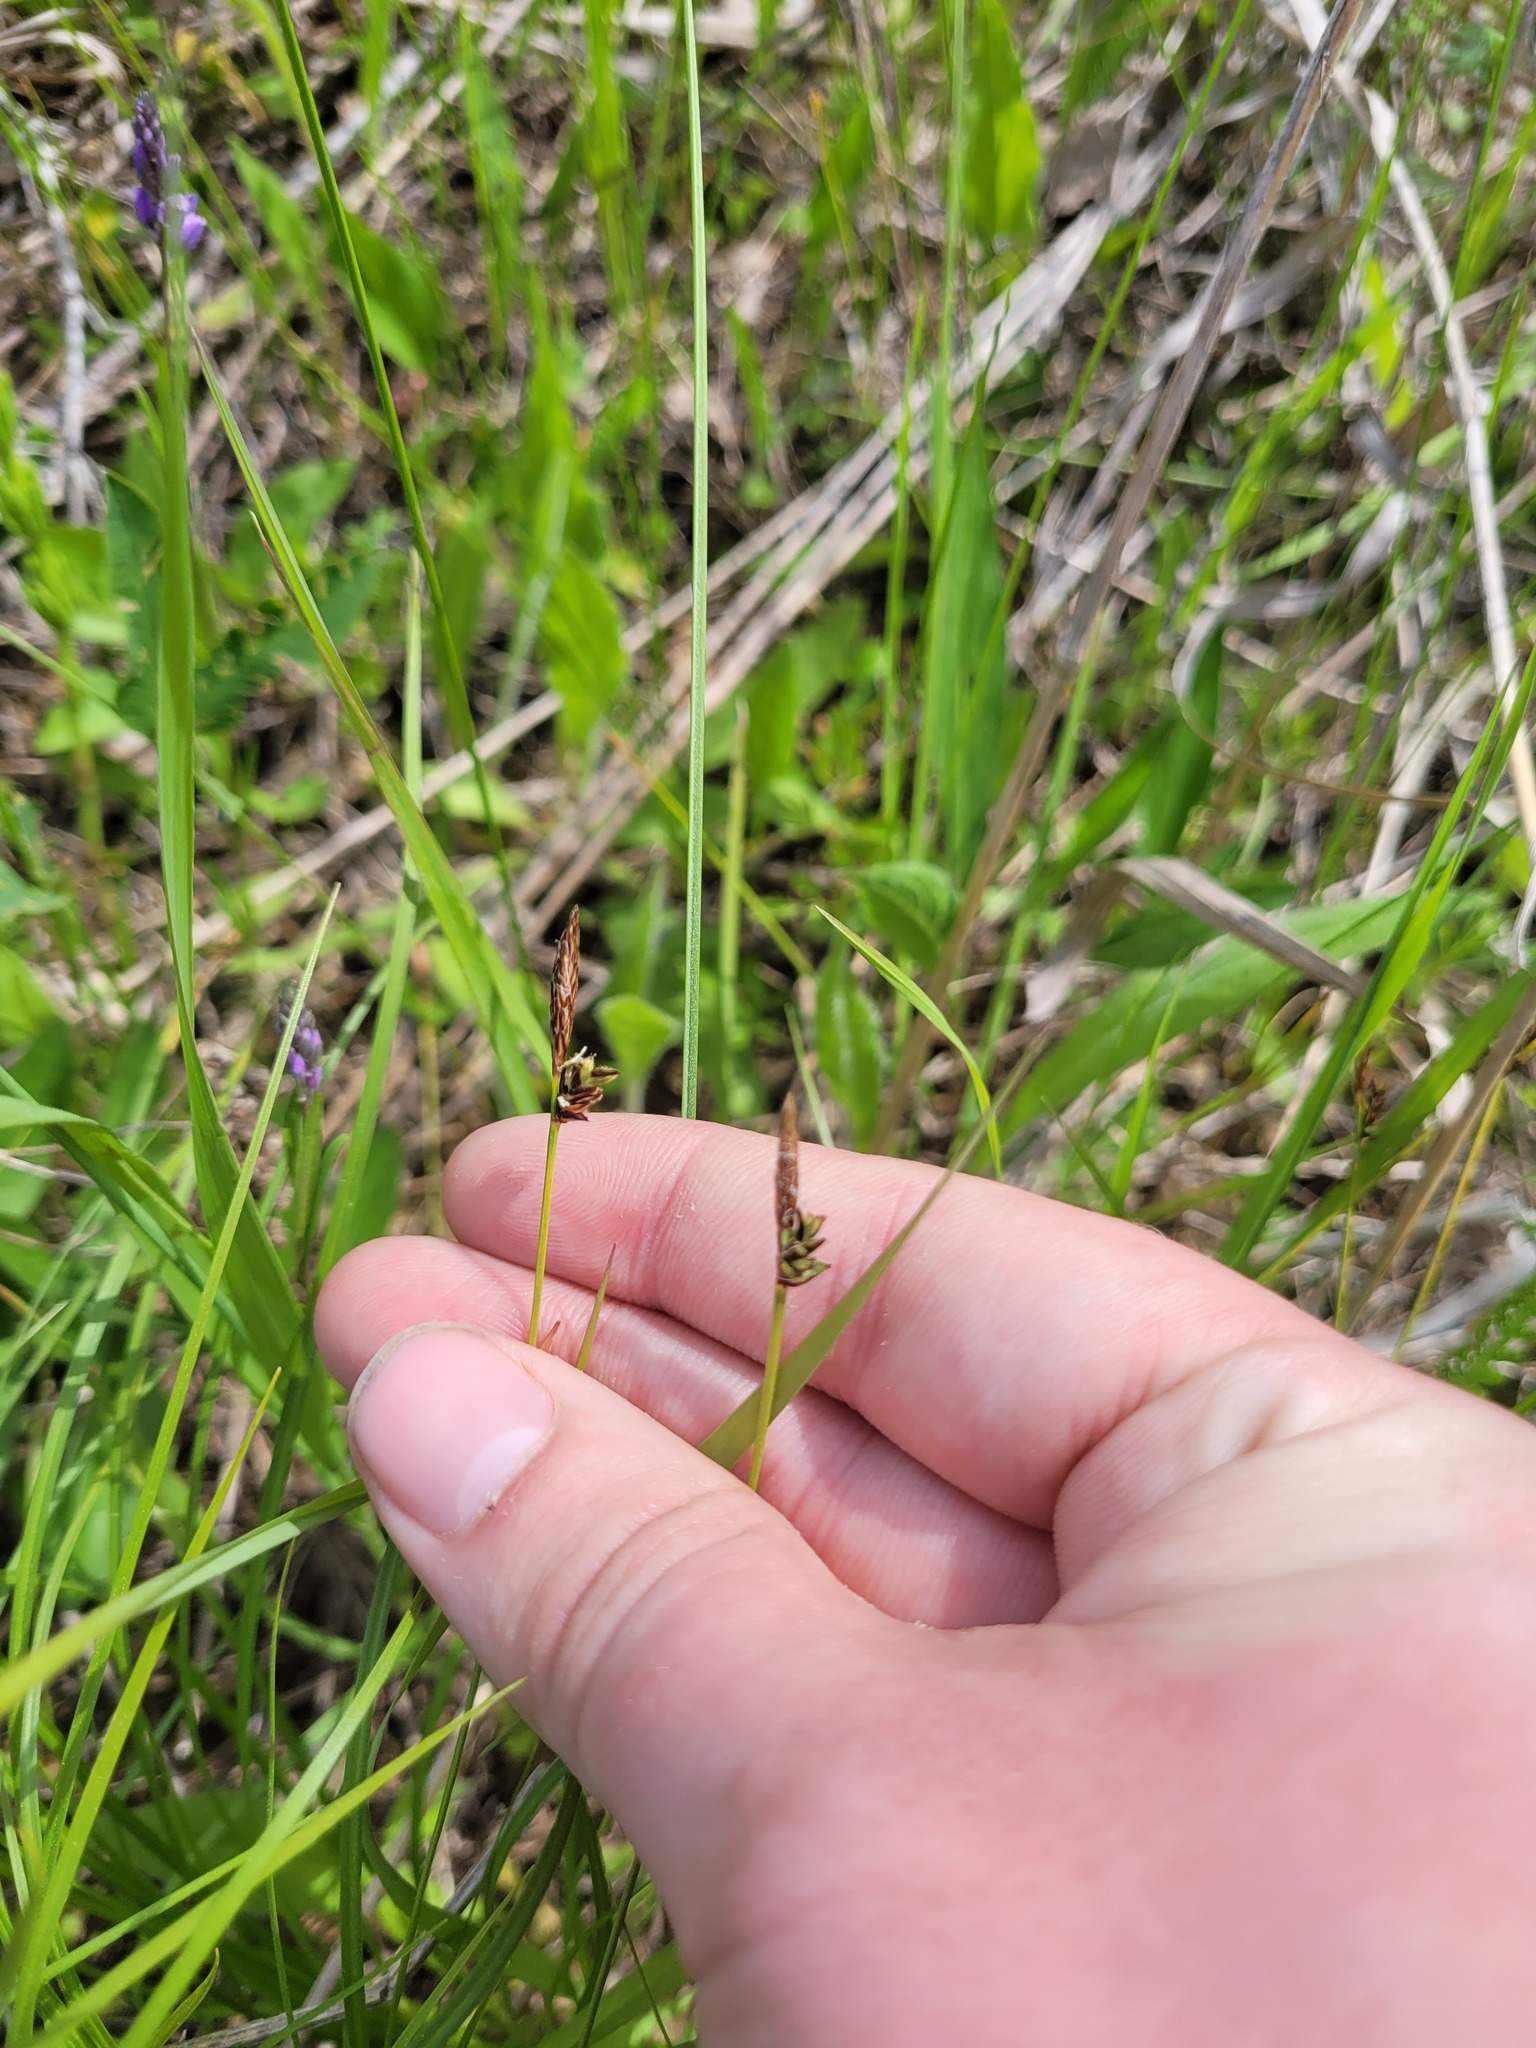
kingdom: Plantae
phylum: Tracheophyta
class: Liliopsida
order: Poales
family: Cyperaceae
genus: Carex
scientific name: Carex montana
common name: Soft-leaved sedge
